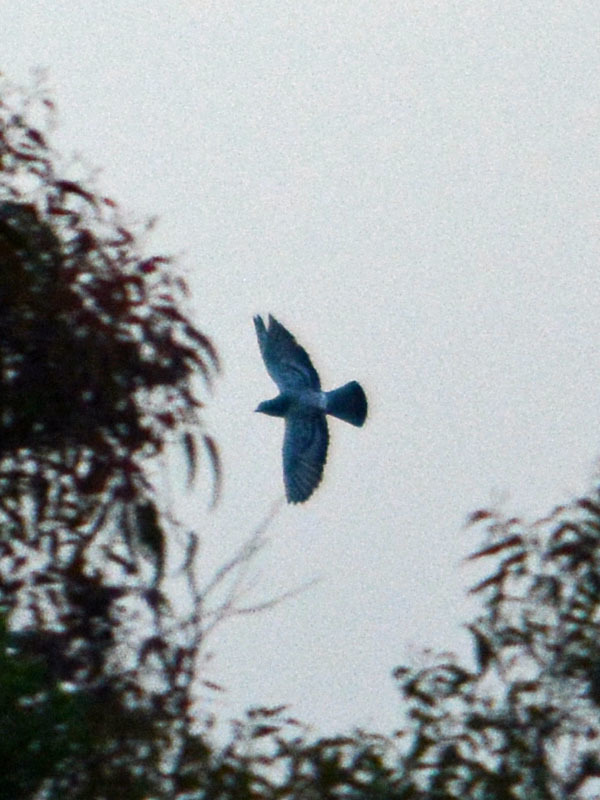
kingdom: Animalia
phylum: Chordata
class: Aves
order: Columbiformes
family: Columbidae
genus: Columba
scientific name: Columba livia
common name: Rock pigeon
